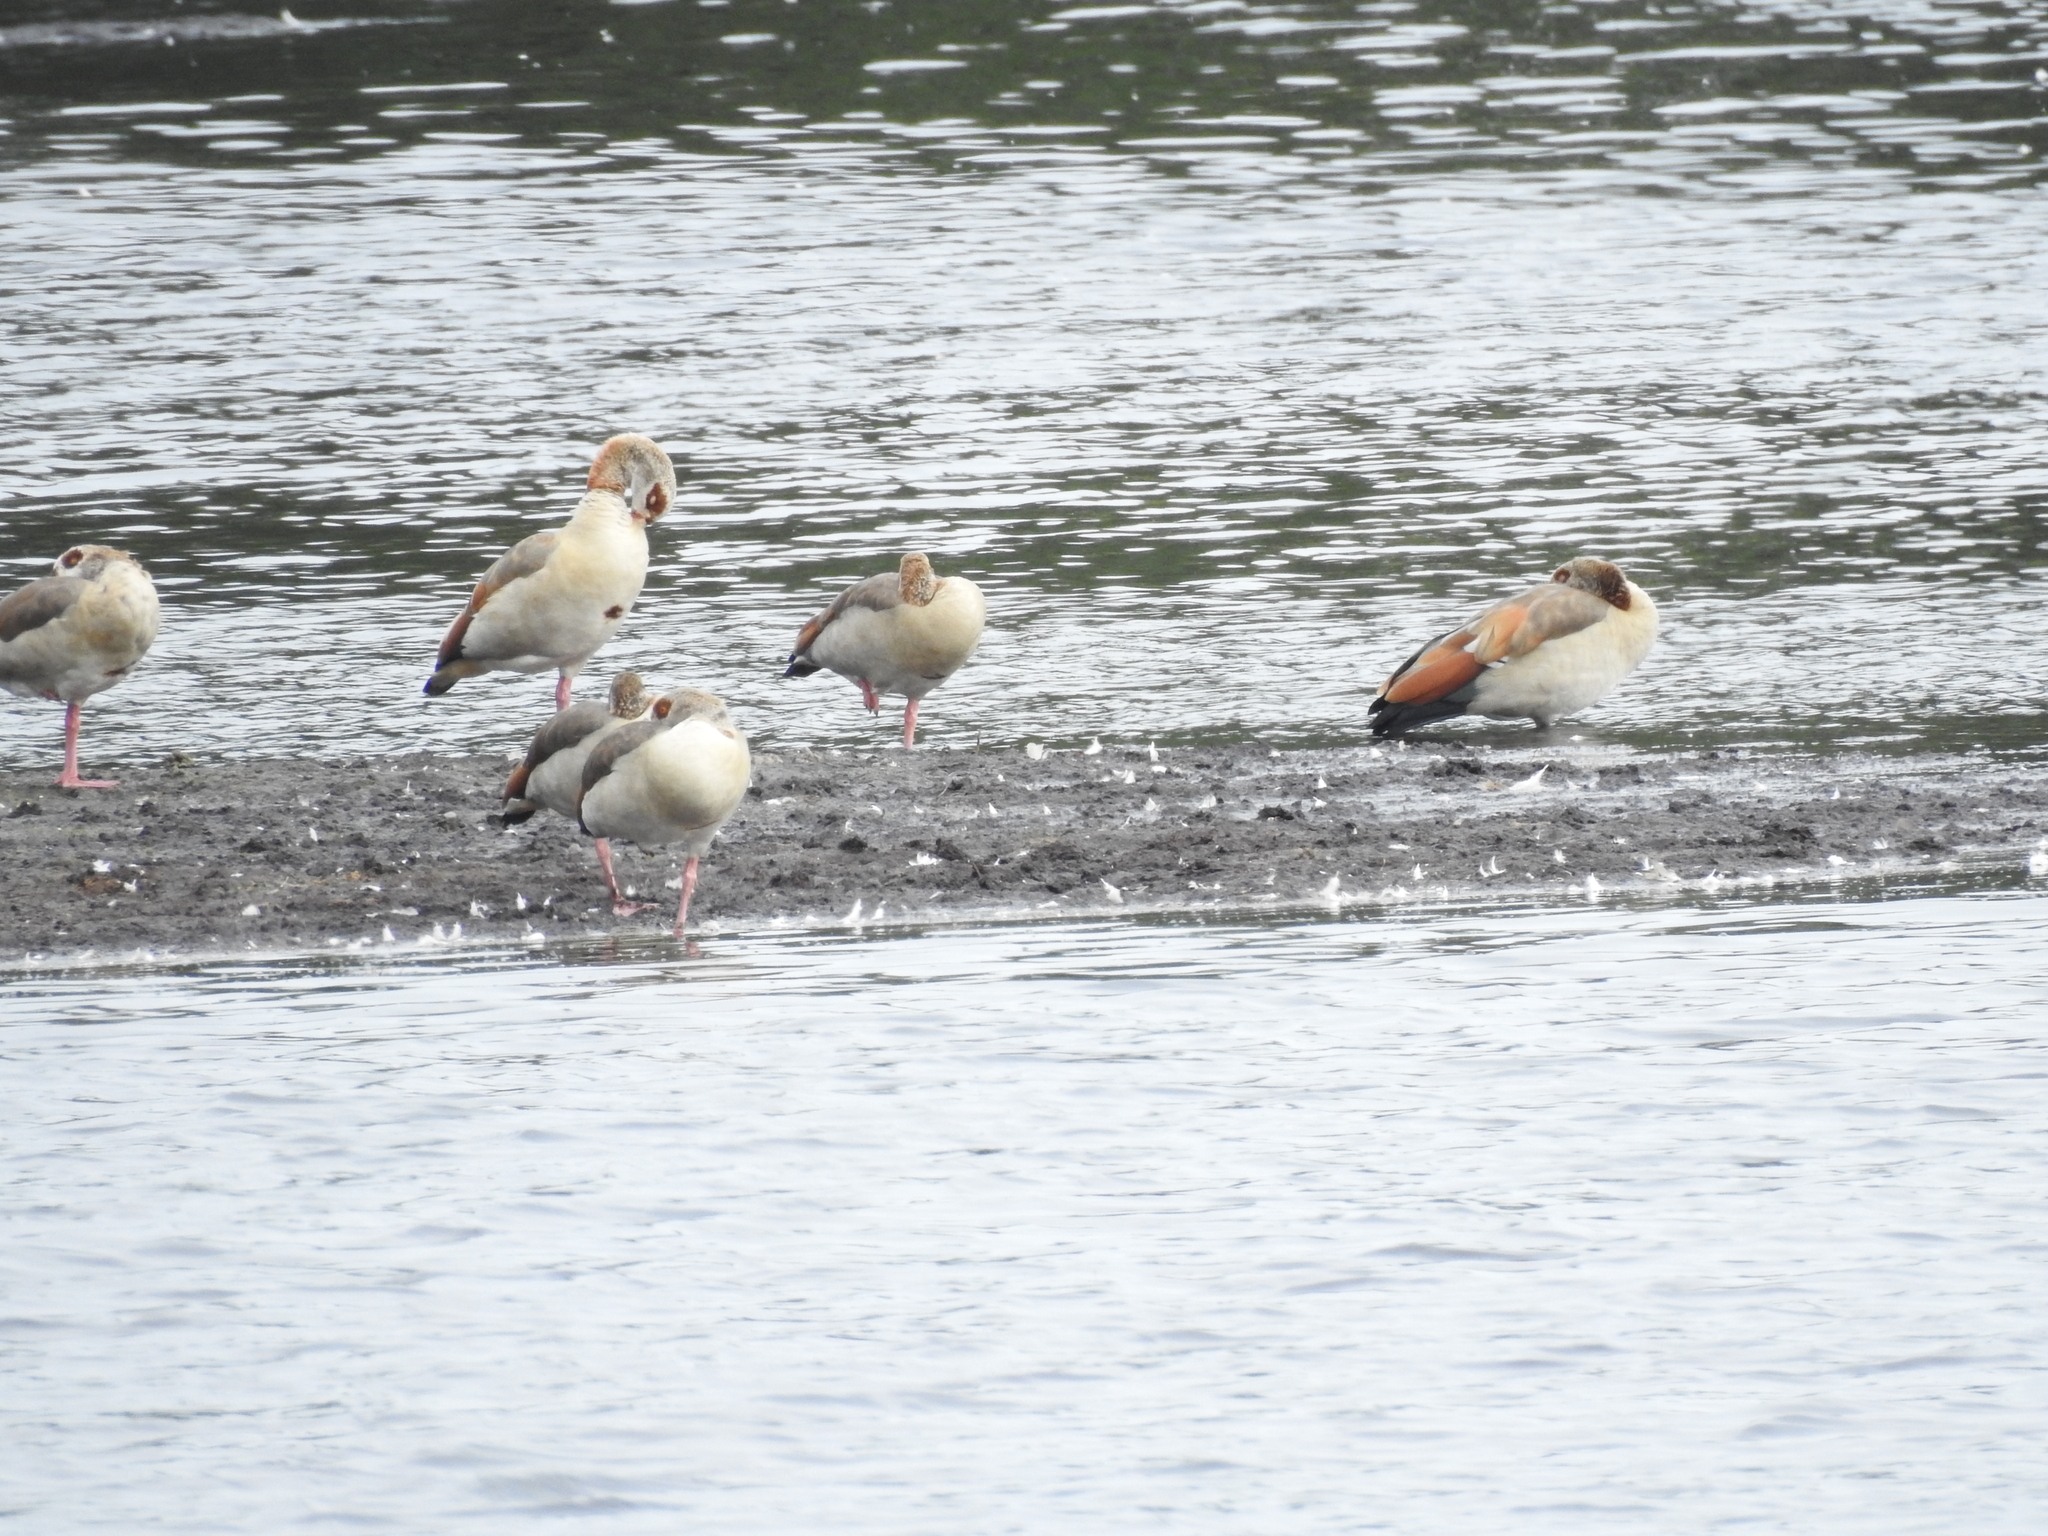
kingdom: Animalia
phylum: Chordata
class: Aves
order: Anseriformes
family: Anatidae
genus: Alopochen
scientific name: Alopochen aegyptiaca
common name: Egyptian goose
